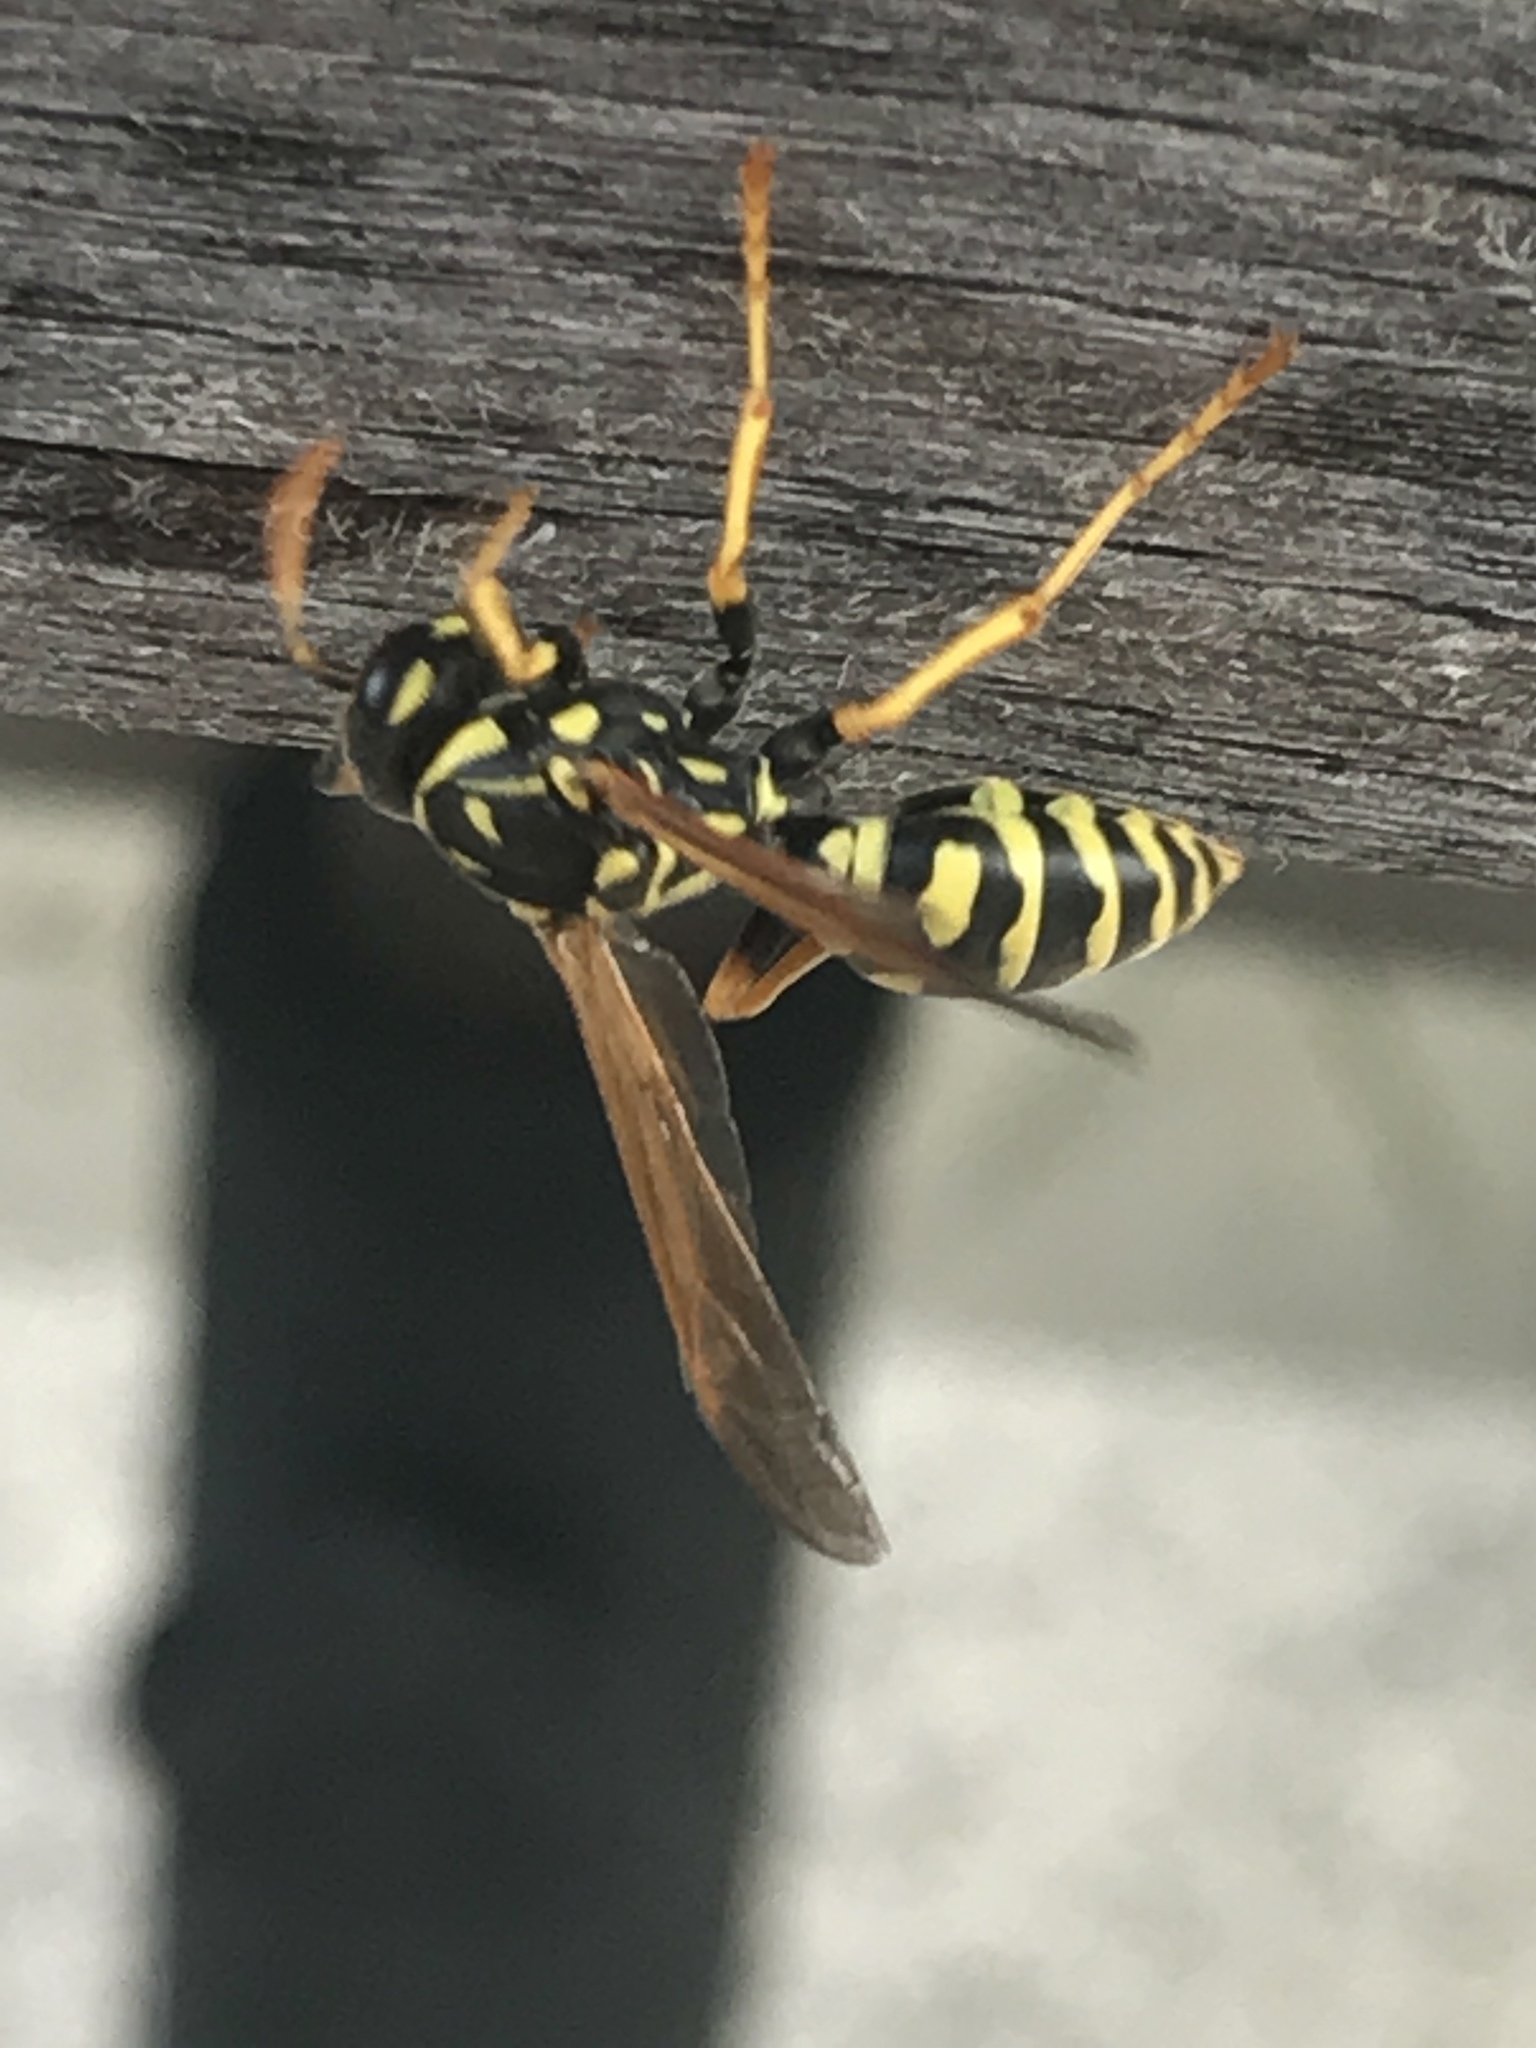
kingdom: Animalia
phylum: Arthropoda
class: Insecta
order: Hymenoptera
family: Eumenidae
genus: Polistes
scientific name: Polistes dominula
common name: Paper wasp
